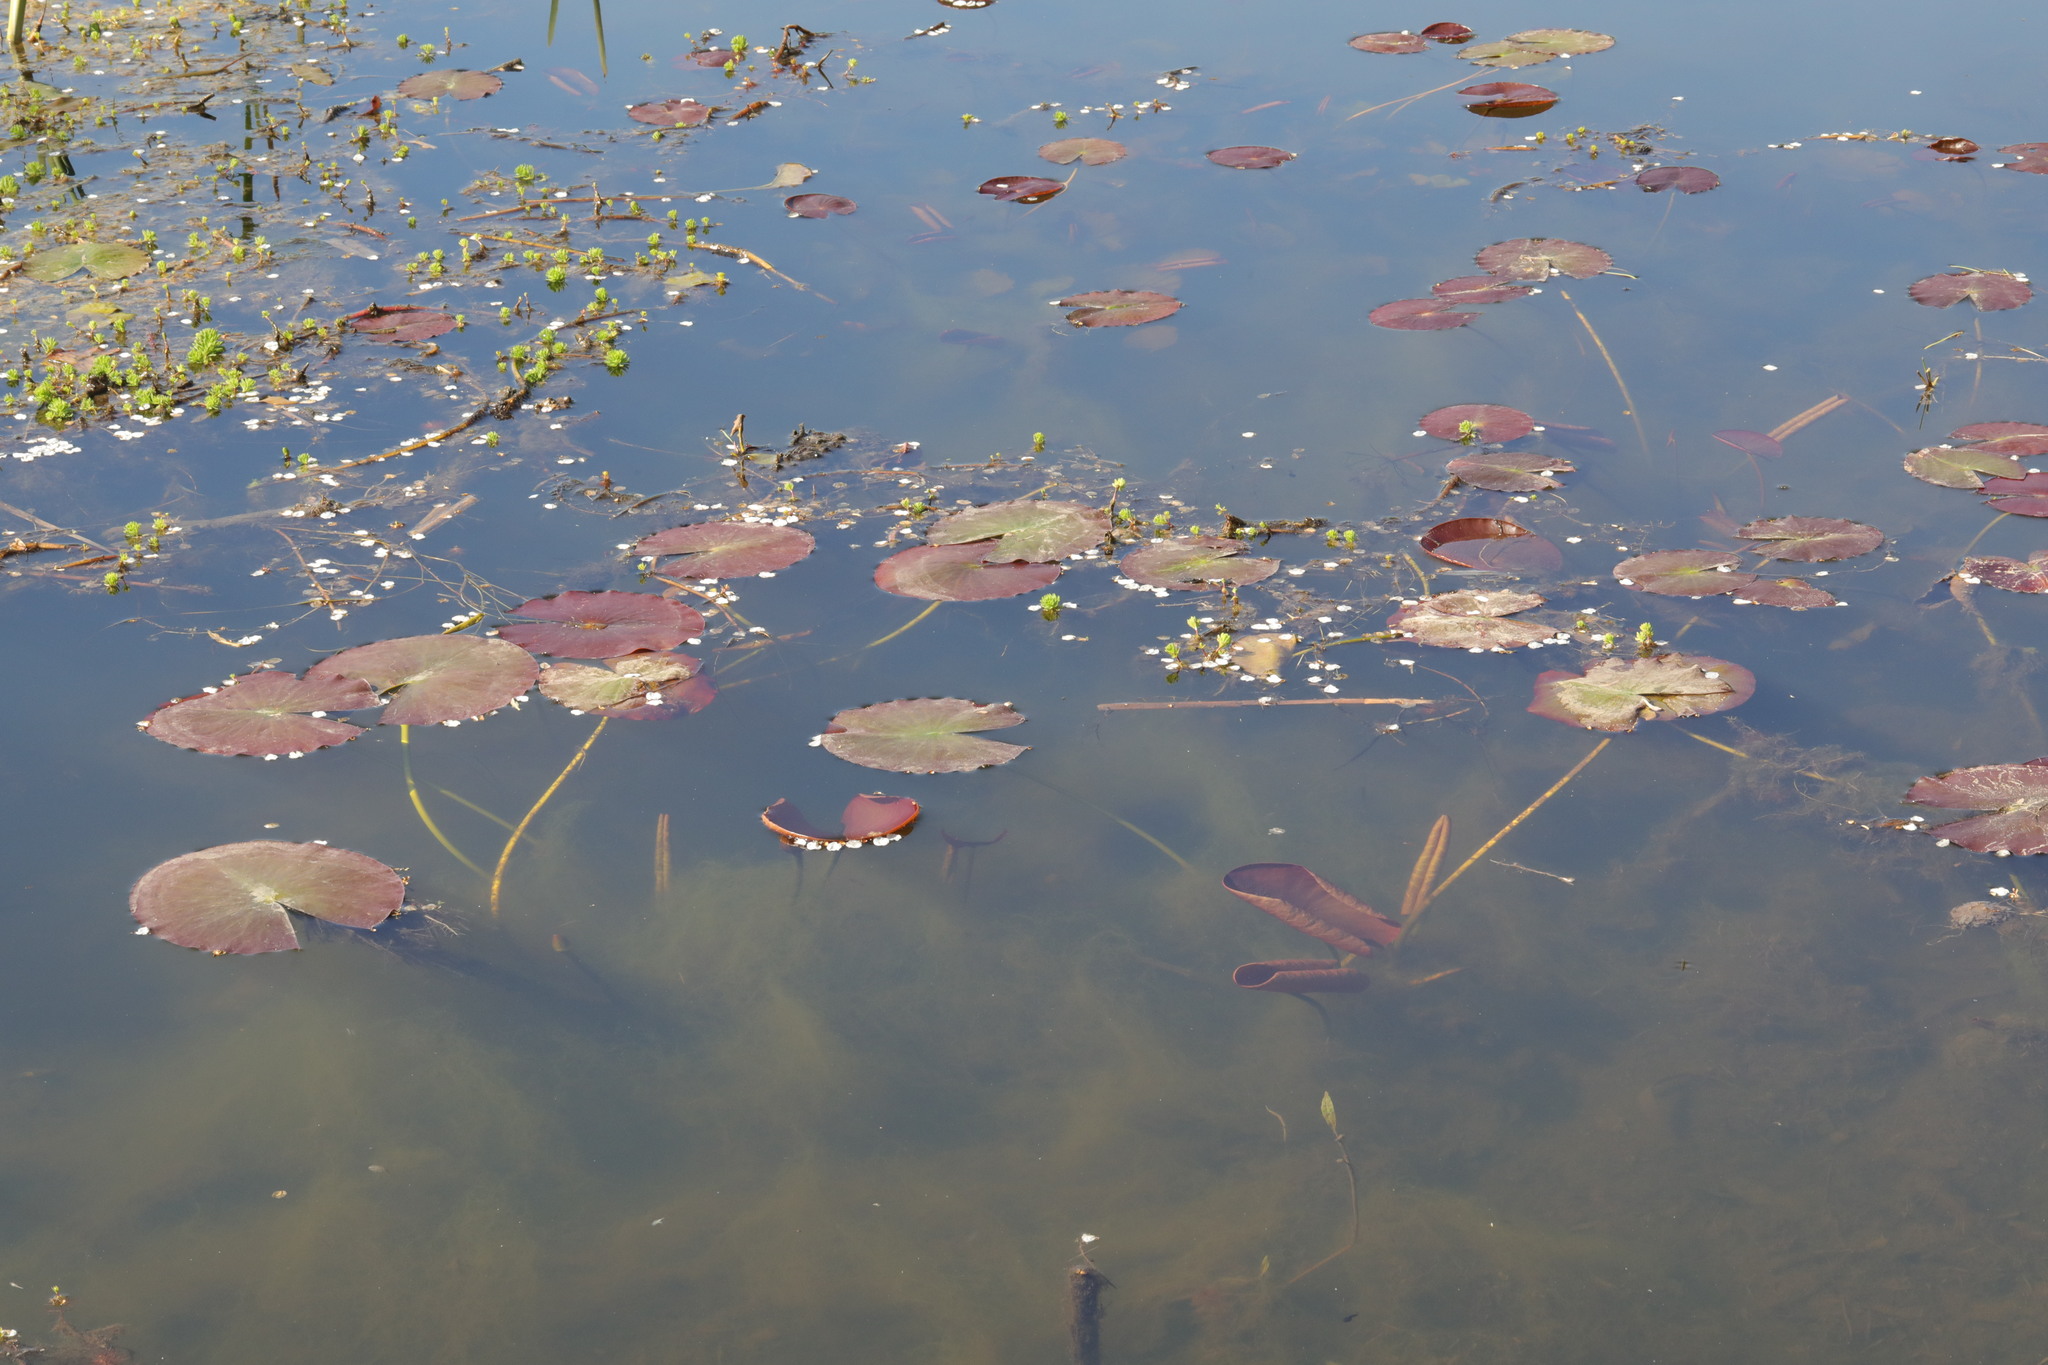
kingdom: Plantae
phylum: Tracheophyta
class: Magnoliopsida
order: Nymphaeales
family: Nymphaeaceae
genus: Nuphar
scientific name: Nuphar lutea
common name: Yellow water-lily
